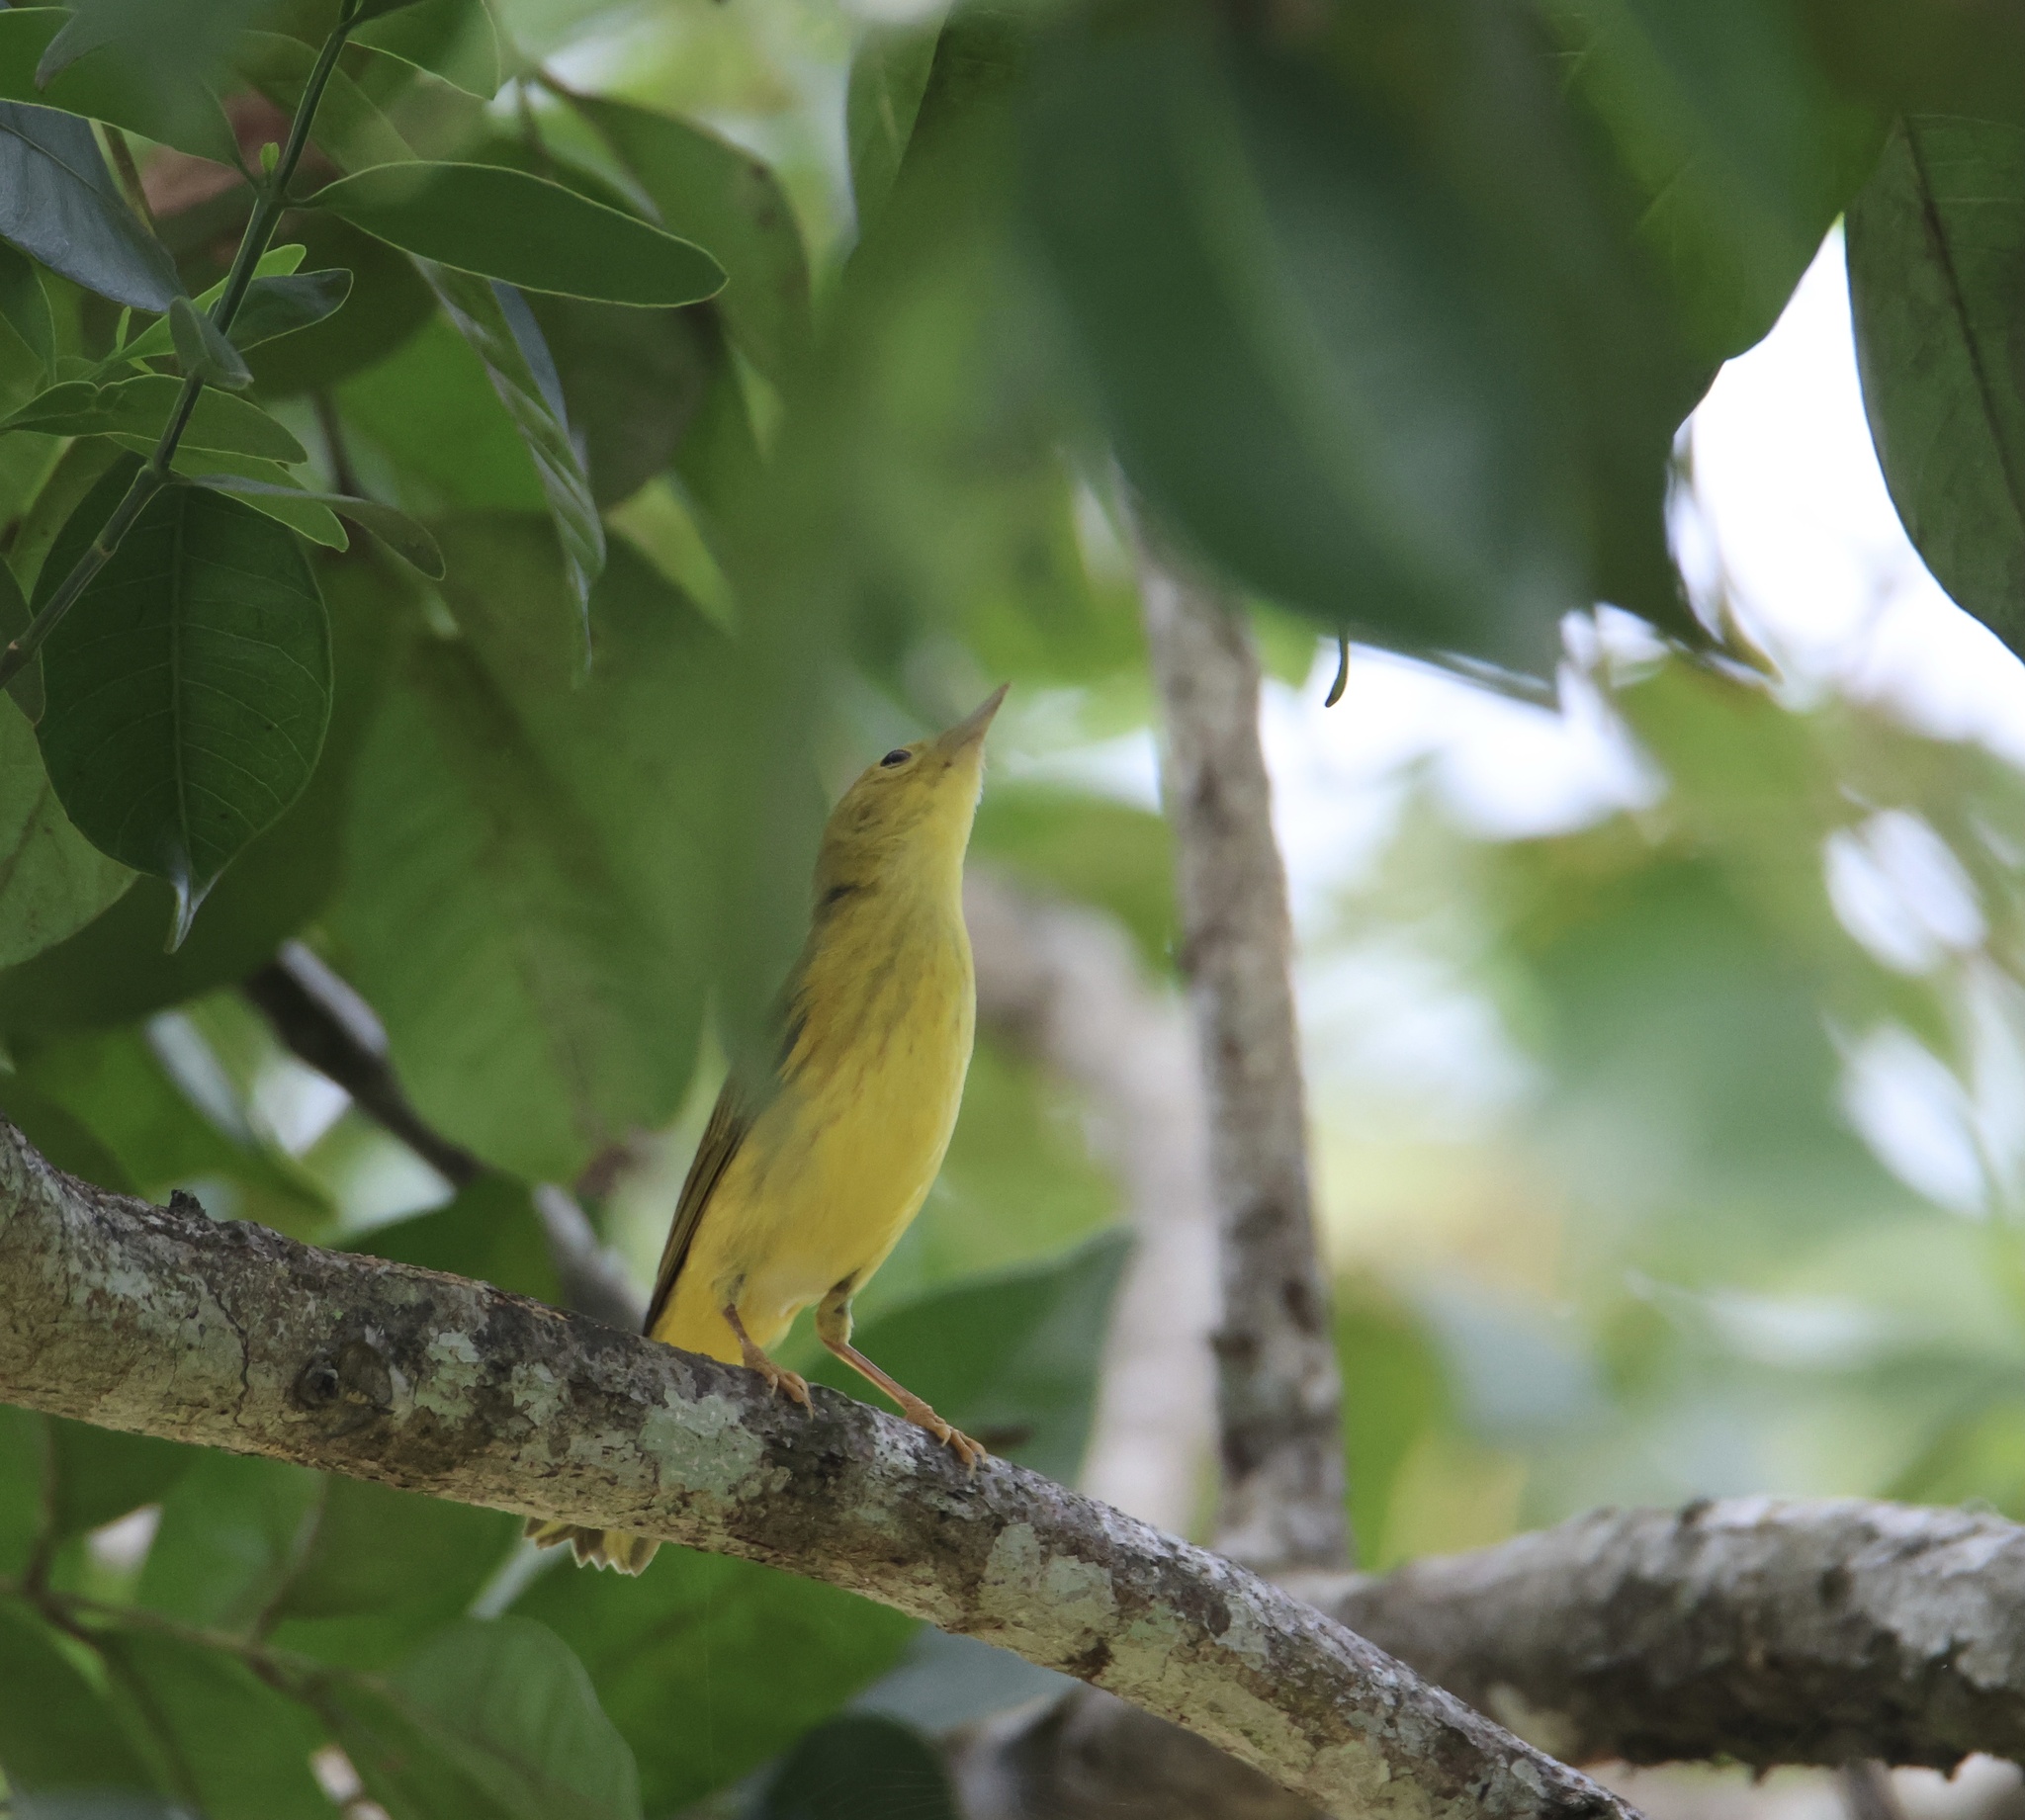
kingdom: Animalia
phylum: Chordata
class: Aves
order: Passeriformes
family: Parulidae
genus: Setophaga
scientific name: Setophaga petechia
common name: Yellow warbler
